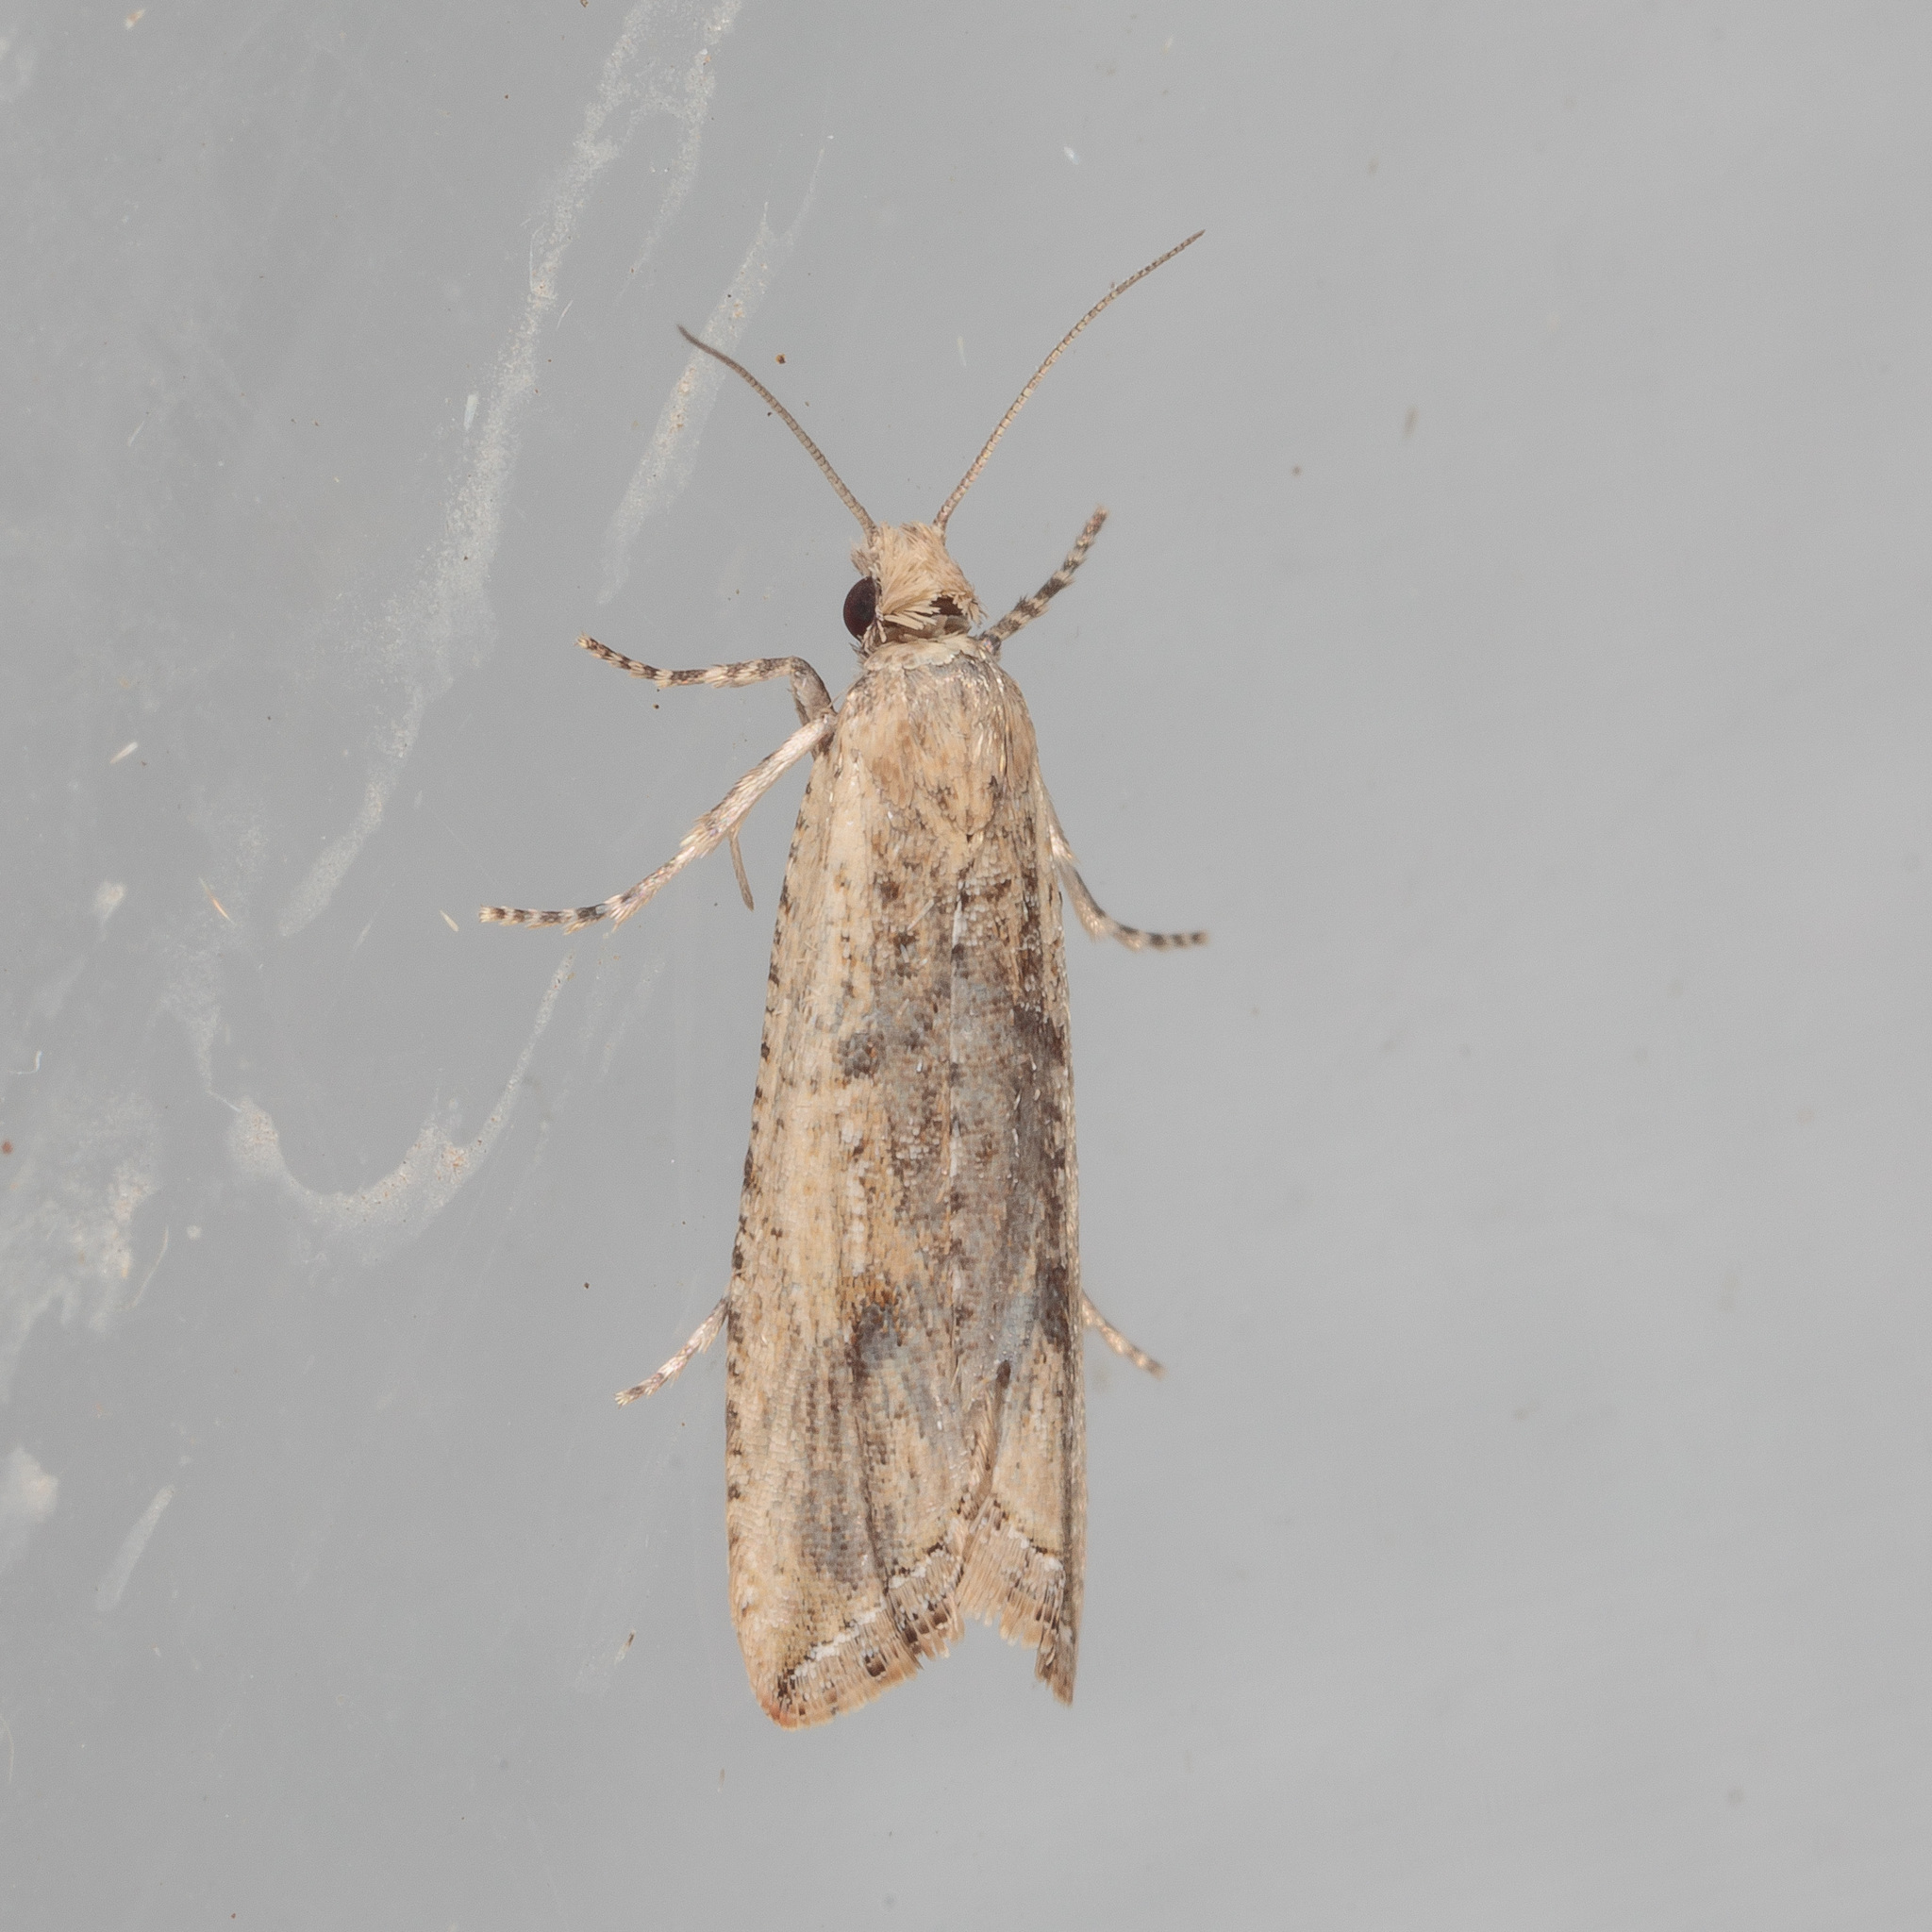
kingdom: Animalia
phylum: Arthropoda
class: Insecta
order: Lepidoptera
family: Tortricidae
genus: Bactra
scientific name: Bactra verutana
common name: Javelin moth
